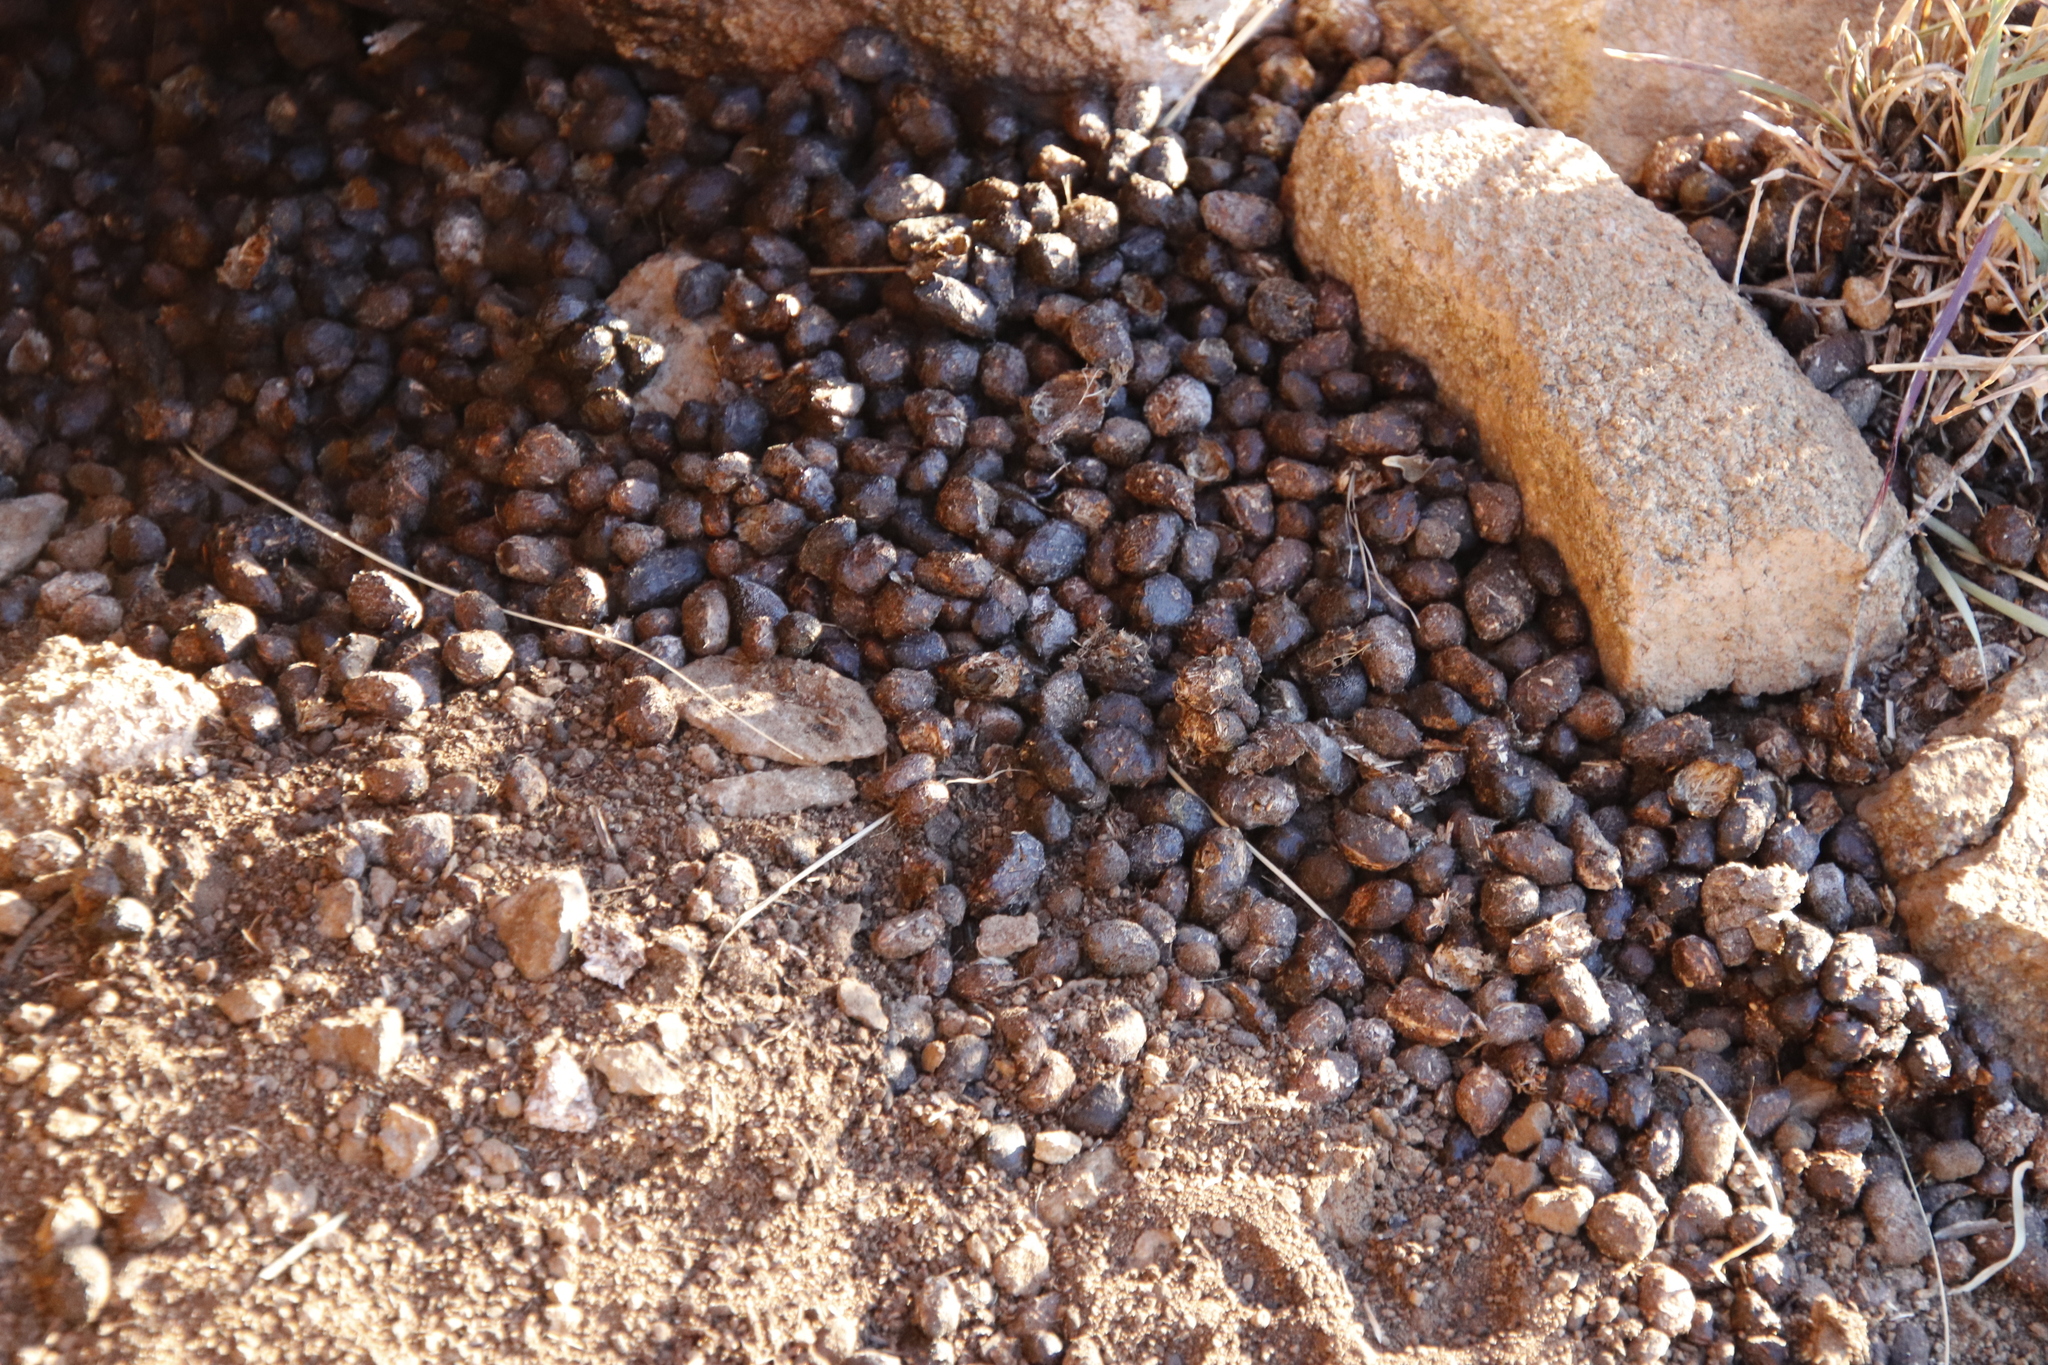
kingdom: Animalia
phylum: Chordata
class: Mammalia
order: Hyracoidea
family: Procaviidae
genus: Procavia
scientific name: Procavia capensis
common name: Rock hyrax
